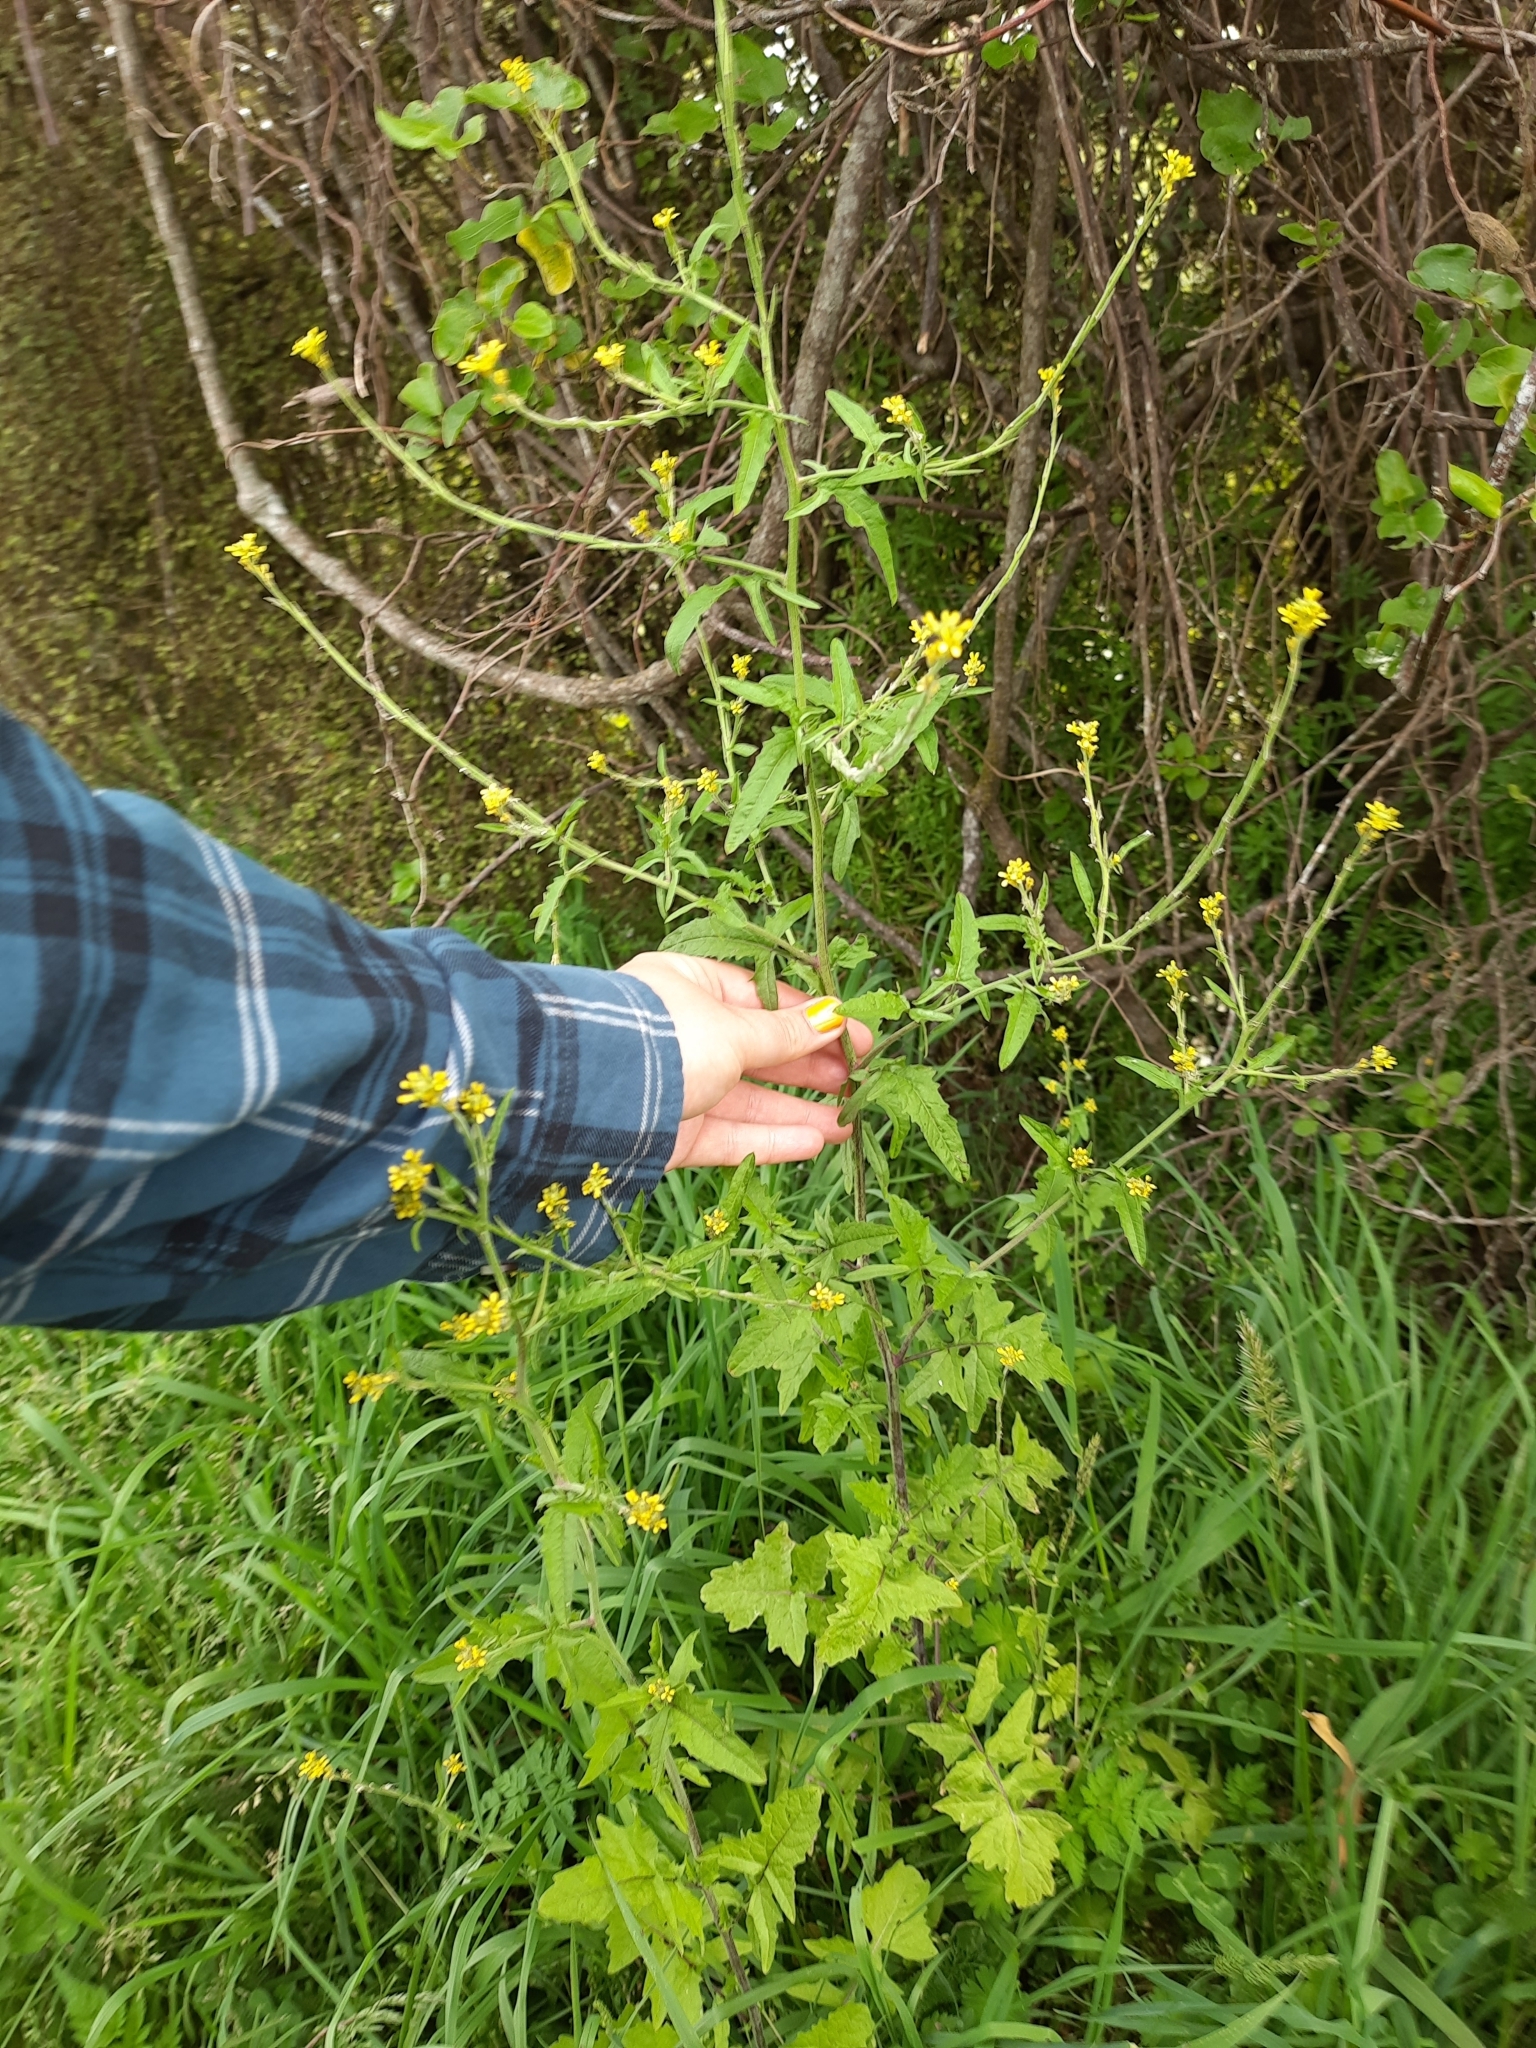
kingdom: Plantae
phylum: Tracheophyta
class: Magnoliopsida
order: Brassicales
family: Brassicaceae
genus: Sisymbrium
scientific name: Sisymbrium officinale
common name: Hedge mustard
